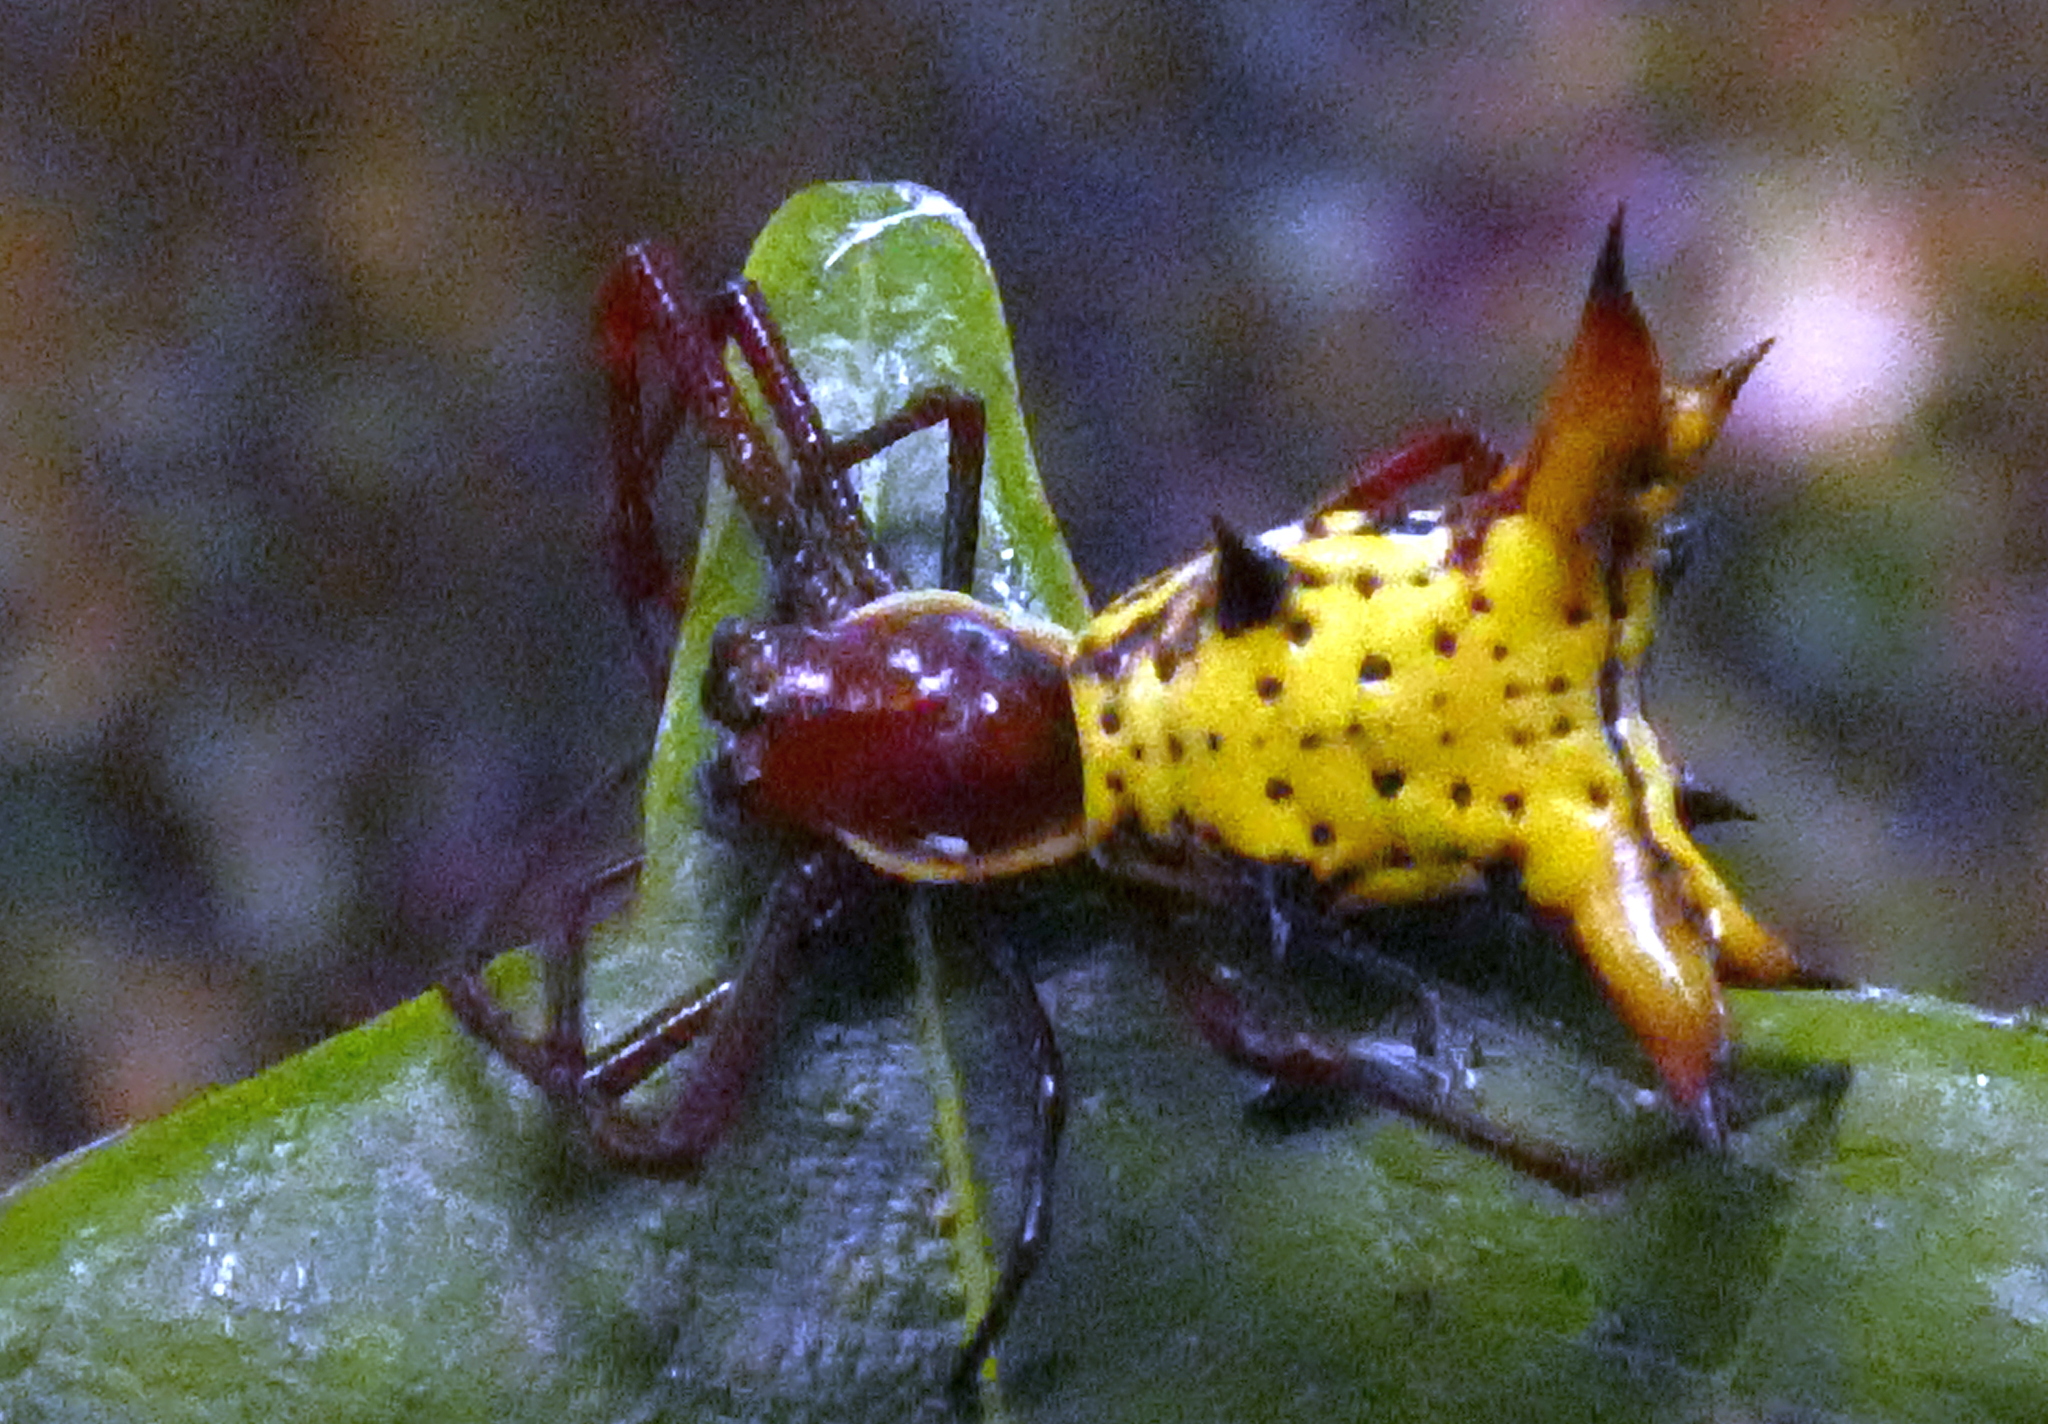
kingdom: Animalia
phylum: Arthropoda
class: Arachnida
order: Araneae
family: Araneidae
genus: Micrathena
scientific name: Micrathena fissispina
